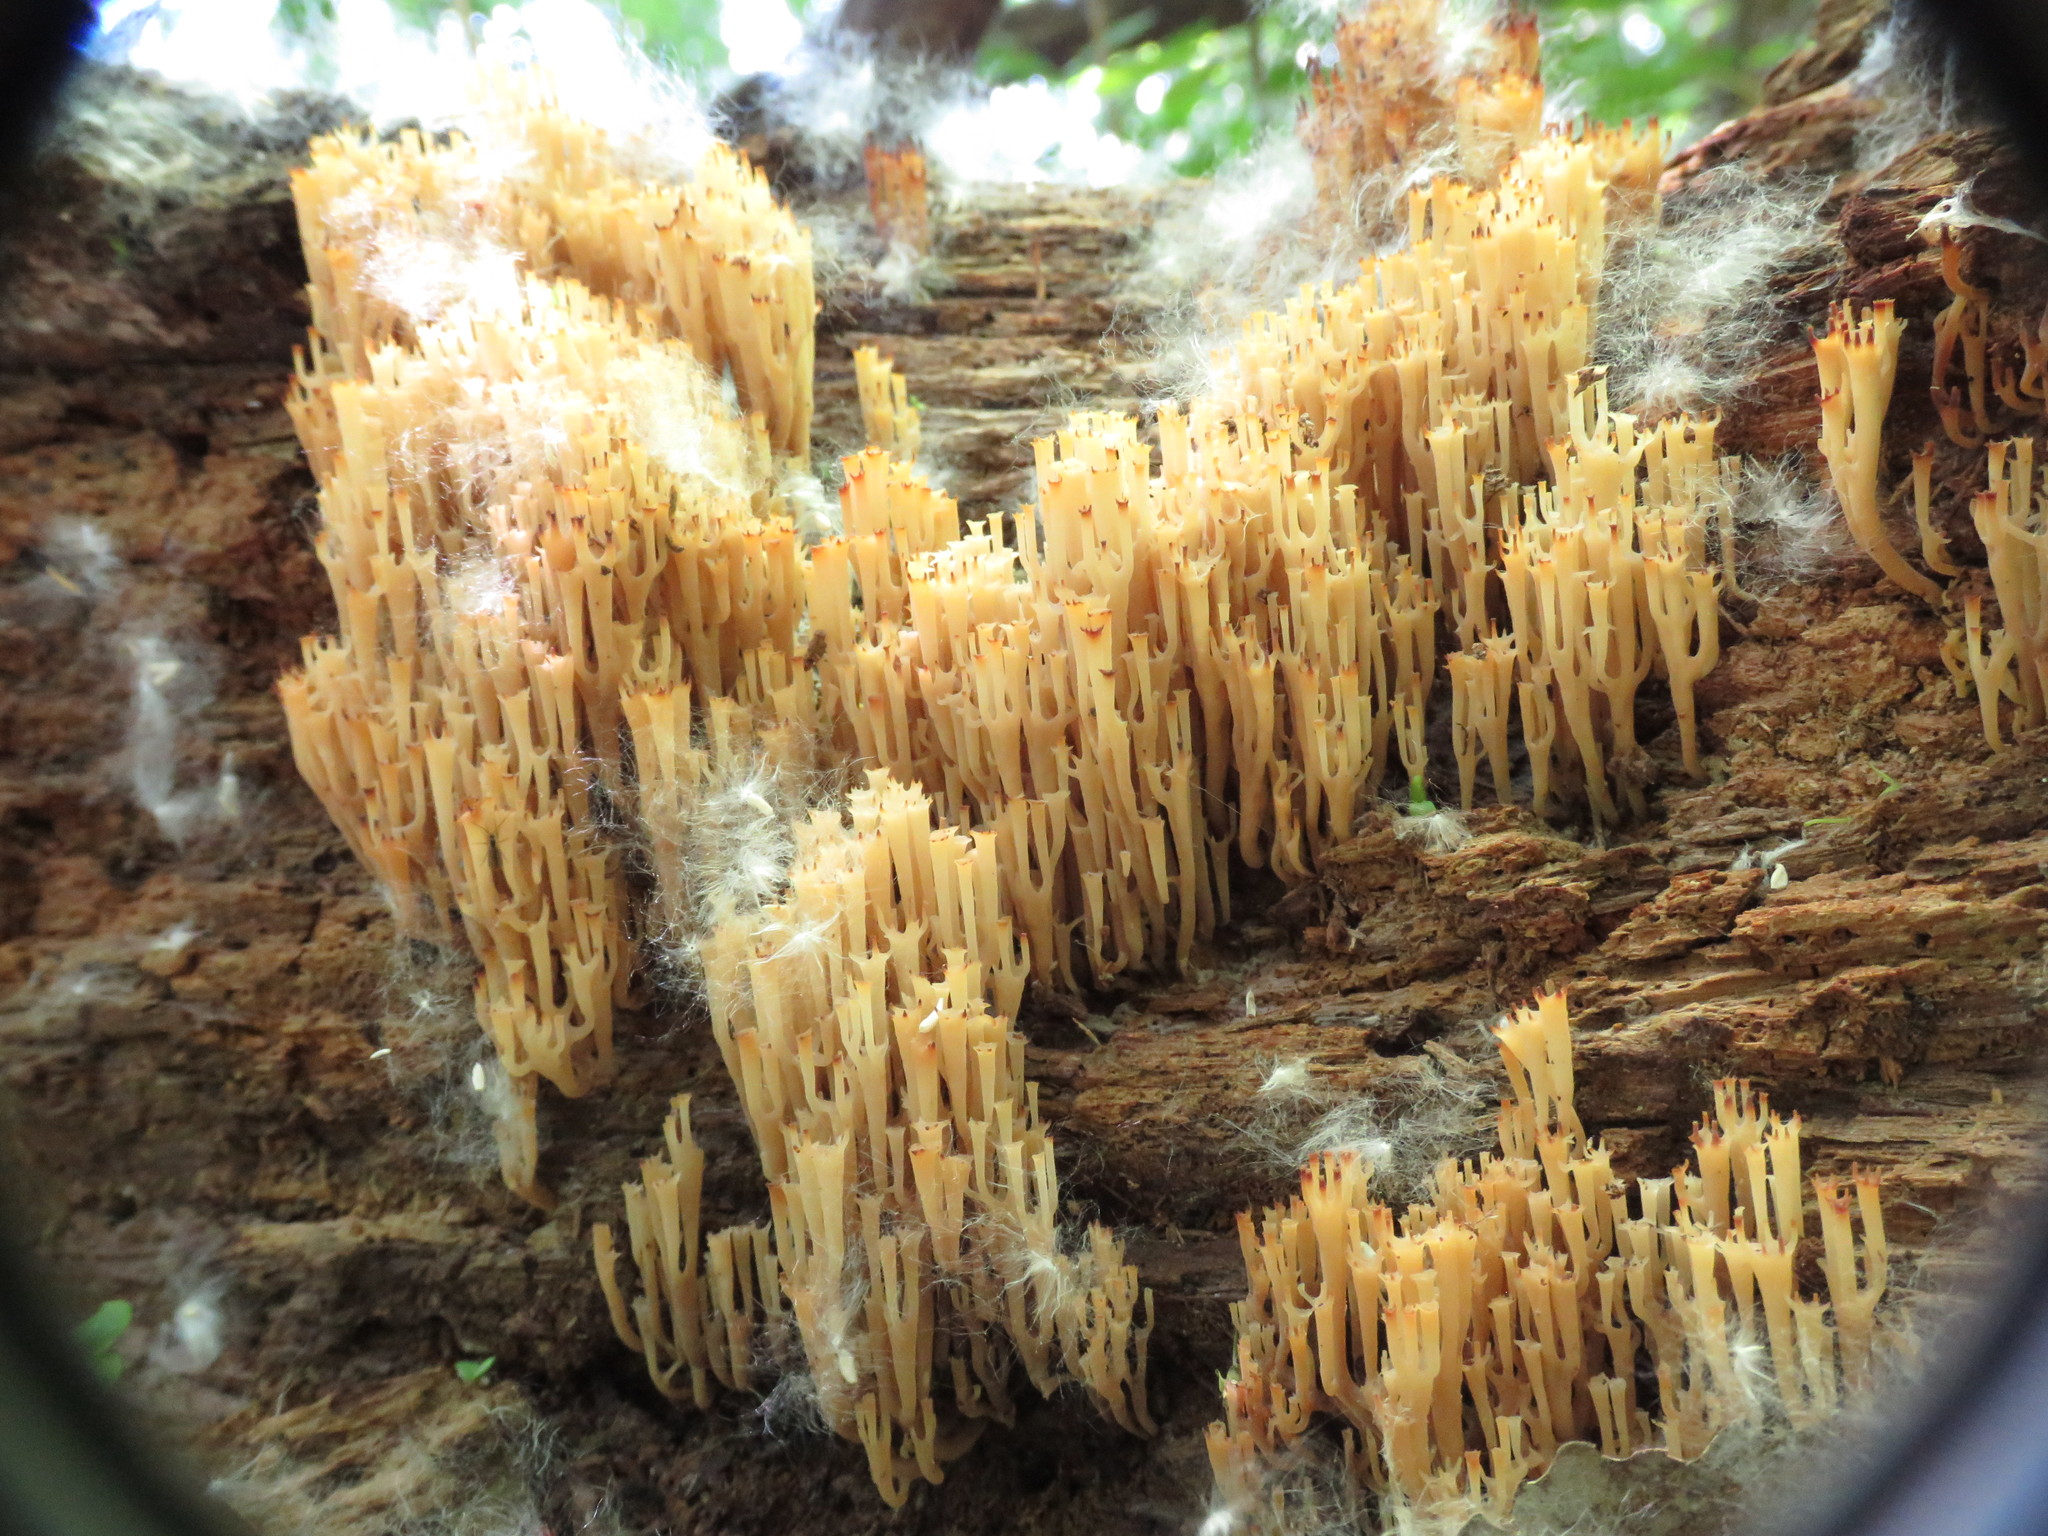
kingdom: Fungi
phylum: Basidiomycota
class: Agaricomycetes
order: Russulales
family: Auriscalpiaceae
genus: Artomyces
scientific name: Artomyces pyxidatus
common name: Crown-tipped coral fungus
